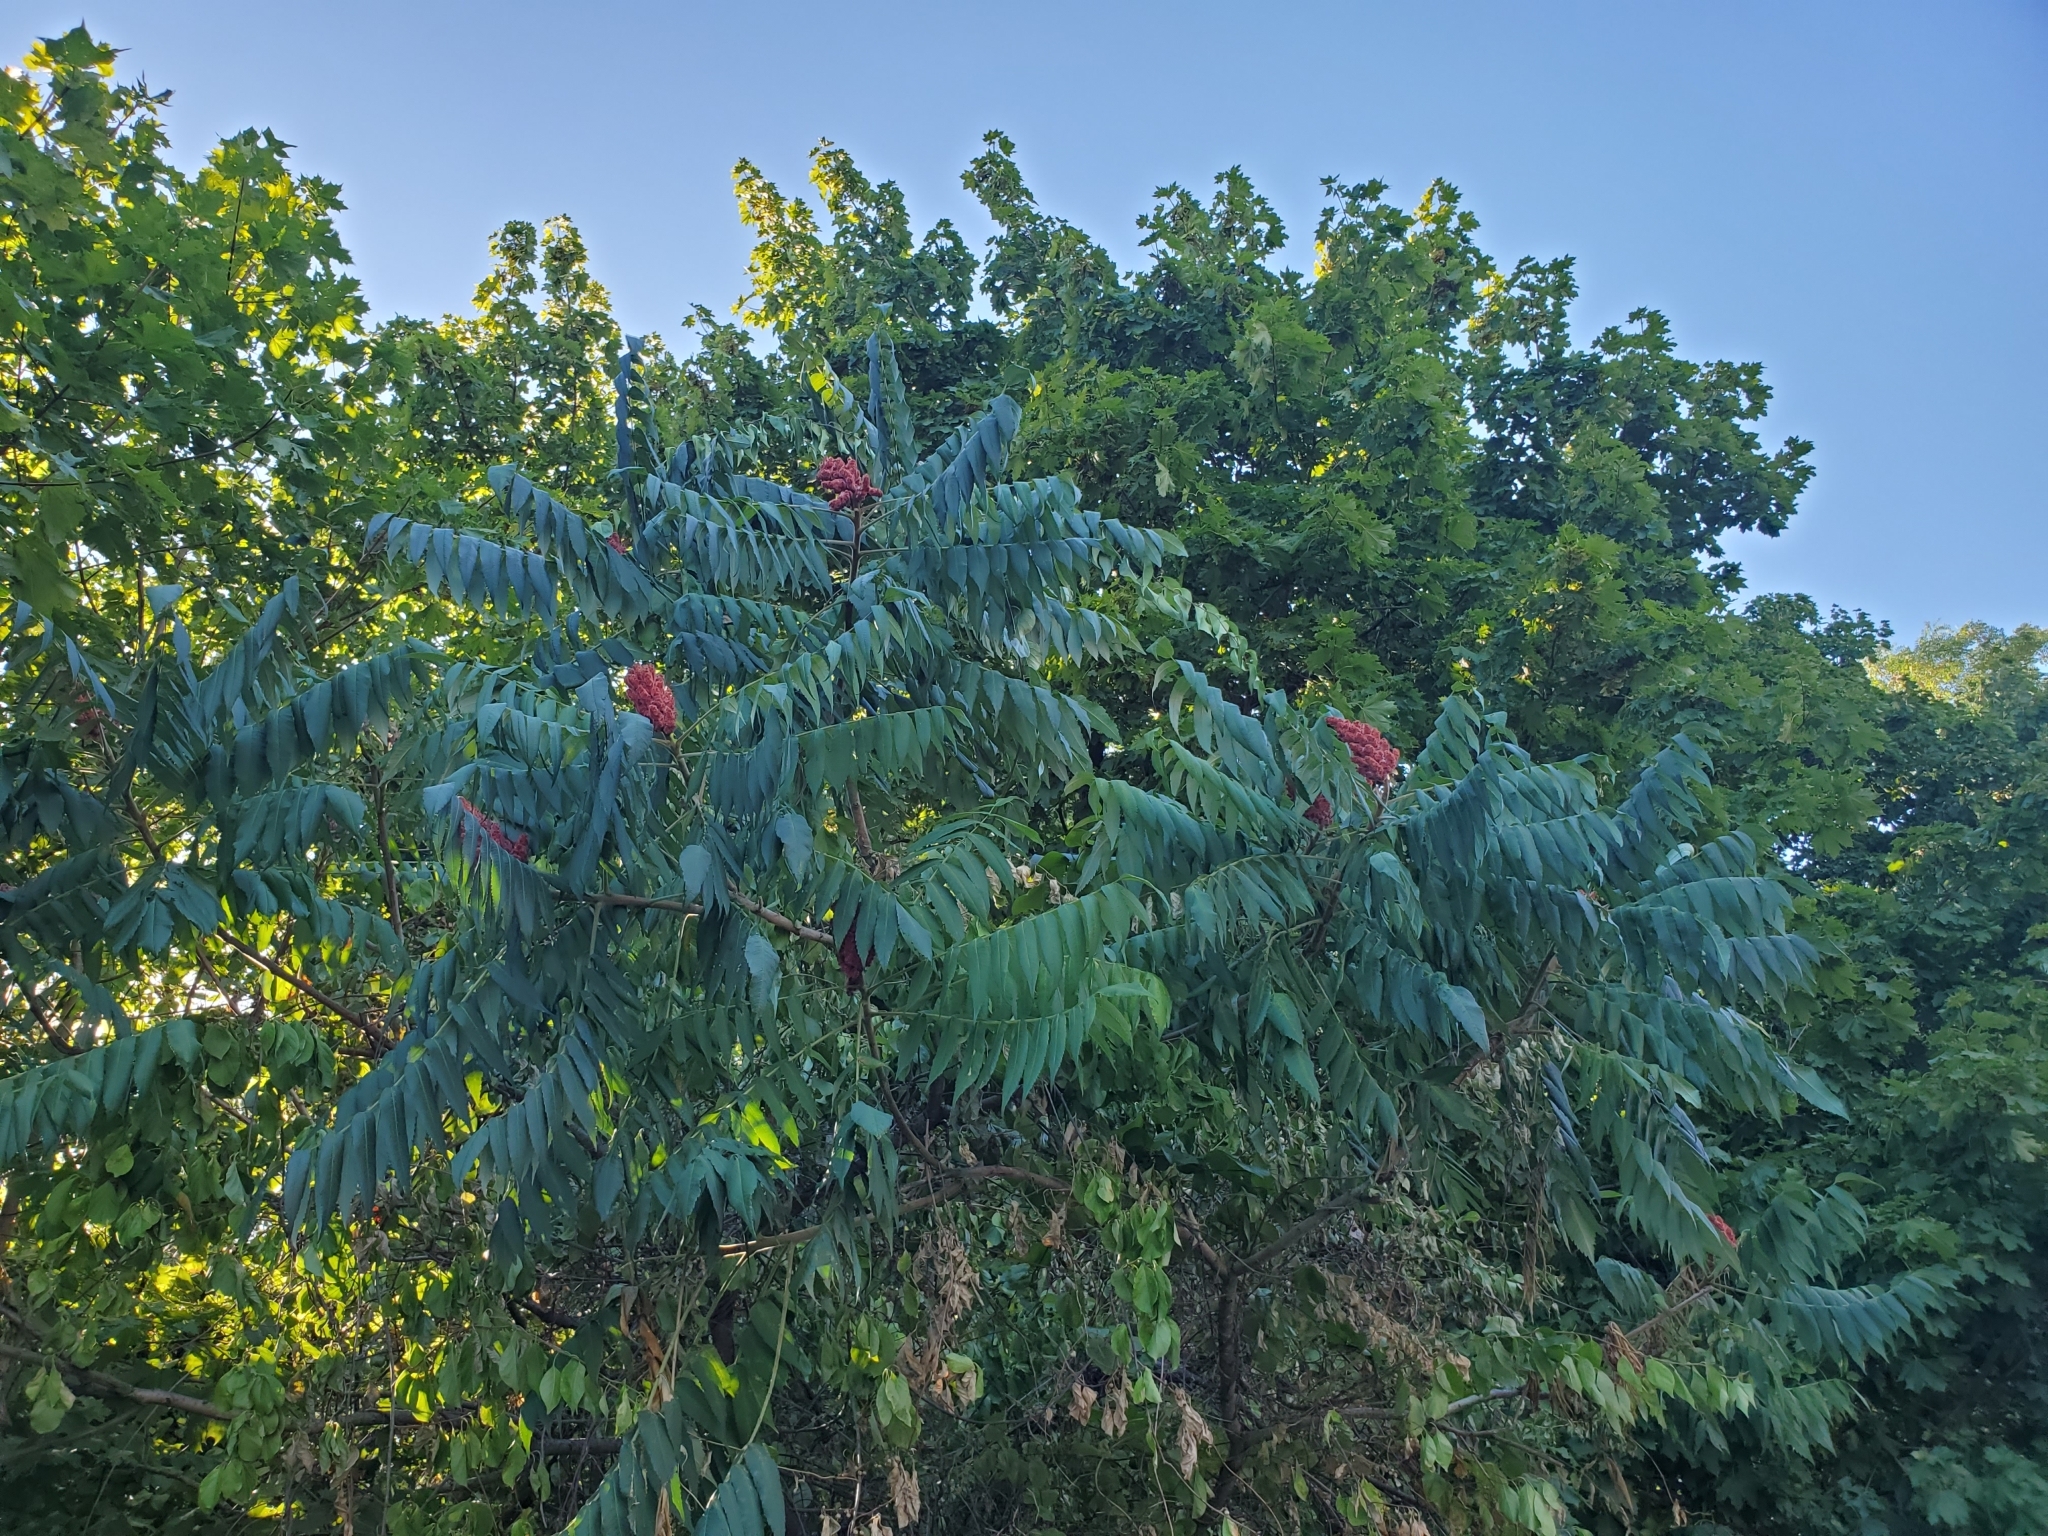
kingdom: Plantae
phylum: Tracheophyta
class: Magnoliopsida
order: Sapindales
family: Anacardiaceae
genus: Rhus
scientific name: Rhus typhina
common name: Staghorn sumac
